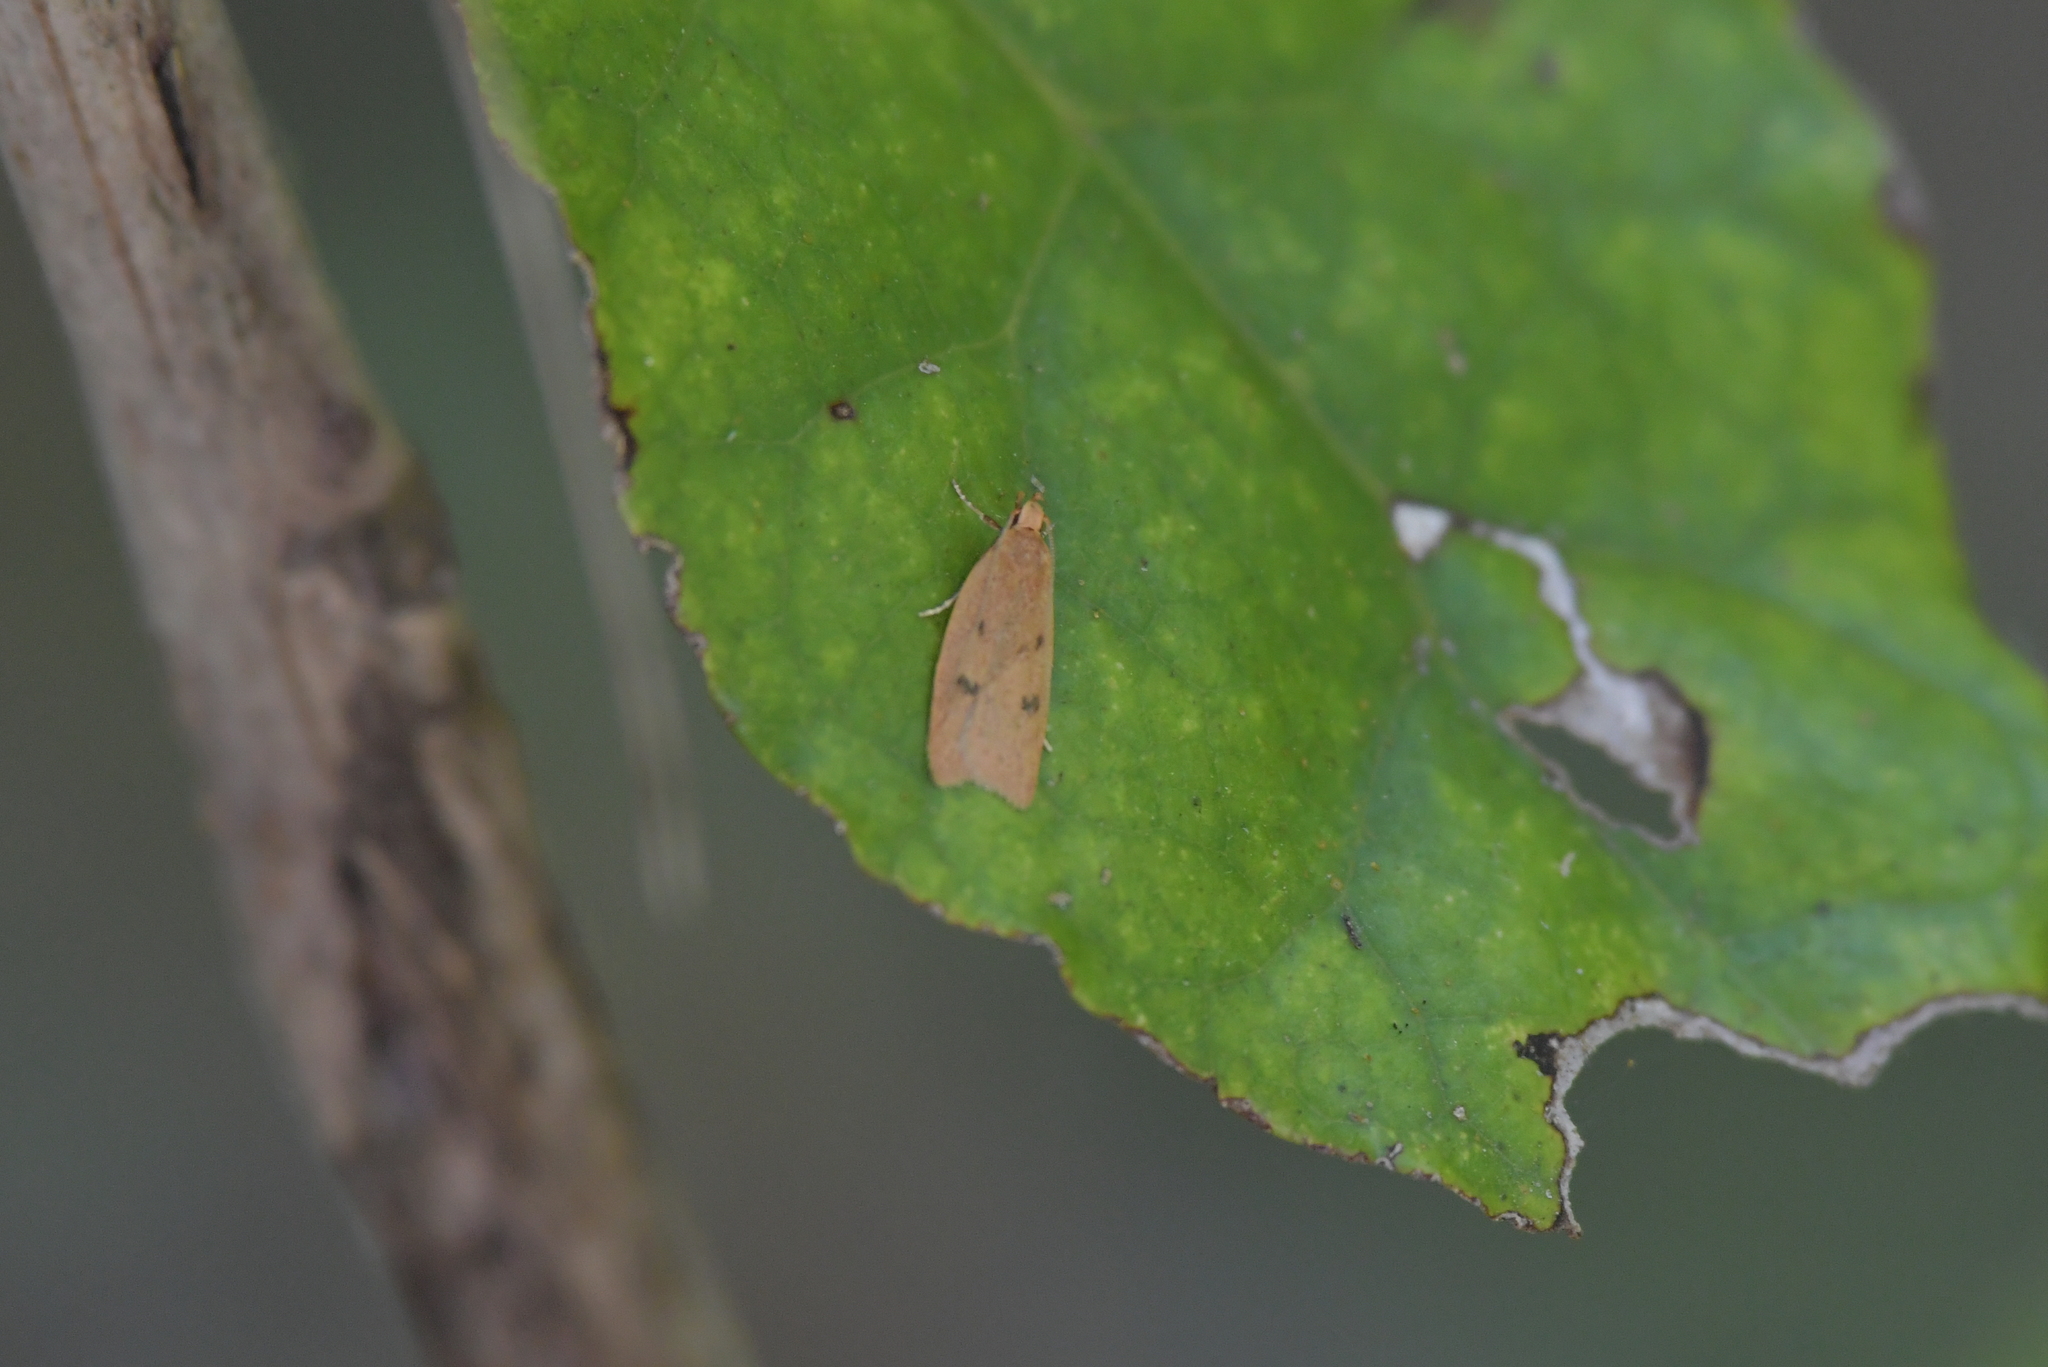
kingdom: Animalia
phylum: Arthropoda
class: Insecta
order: Lepidoptera
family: Oecophoridae
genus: Gymnobathra
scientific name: Gymnobathra sarcoxantha
